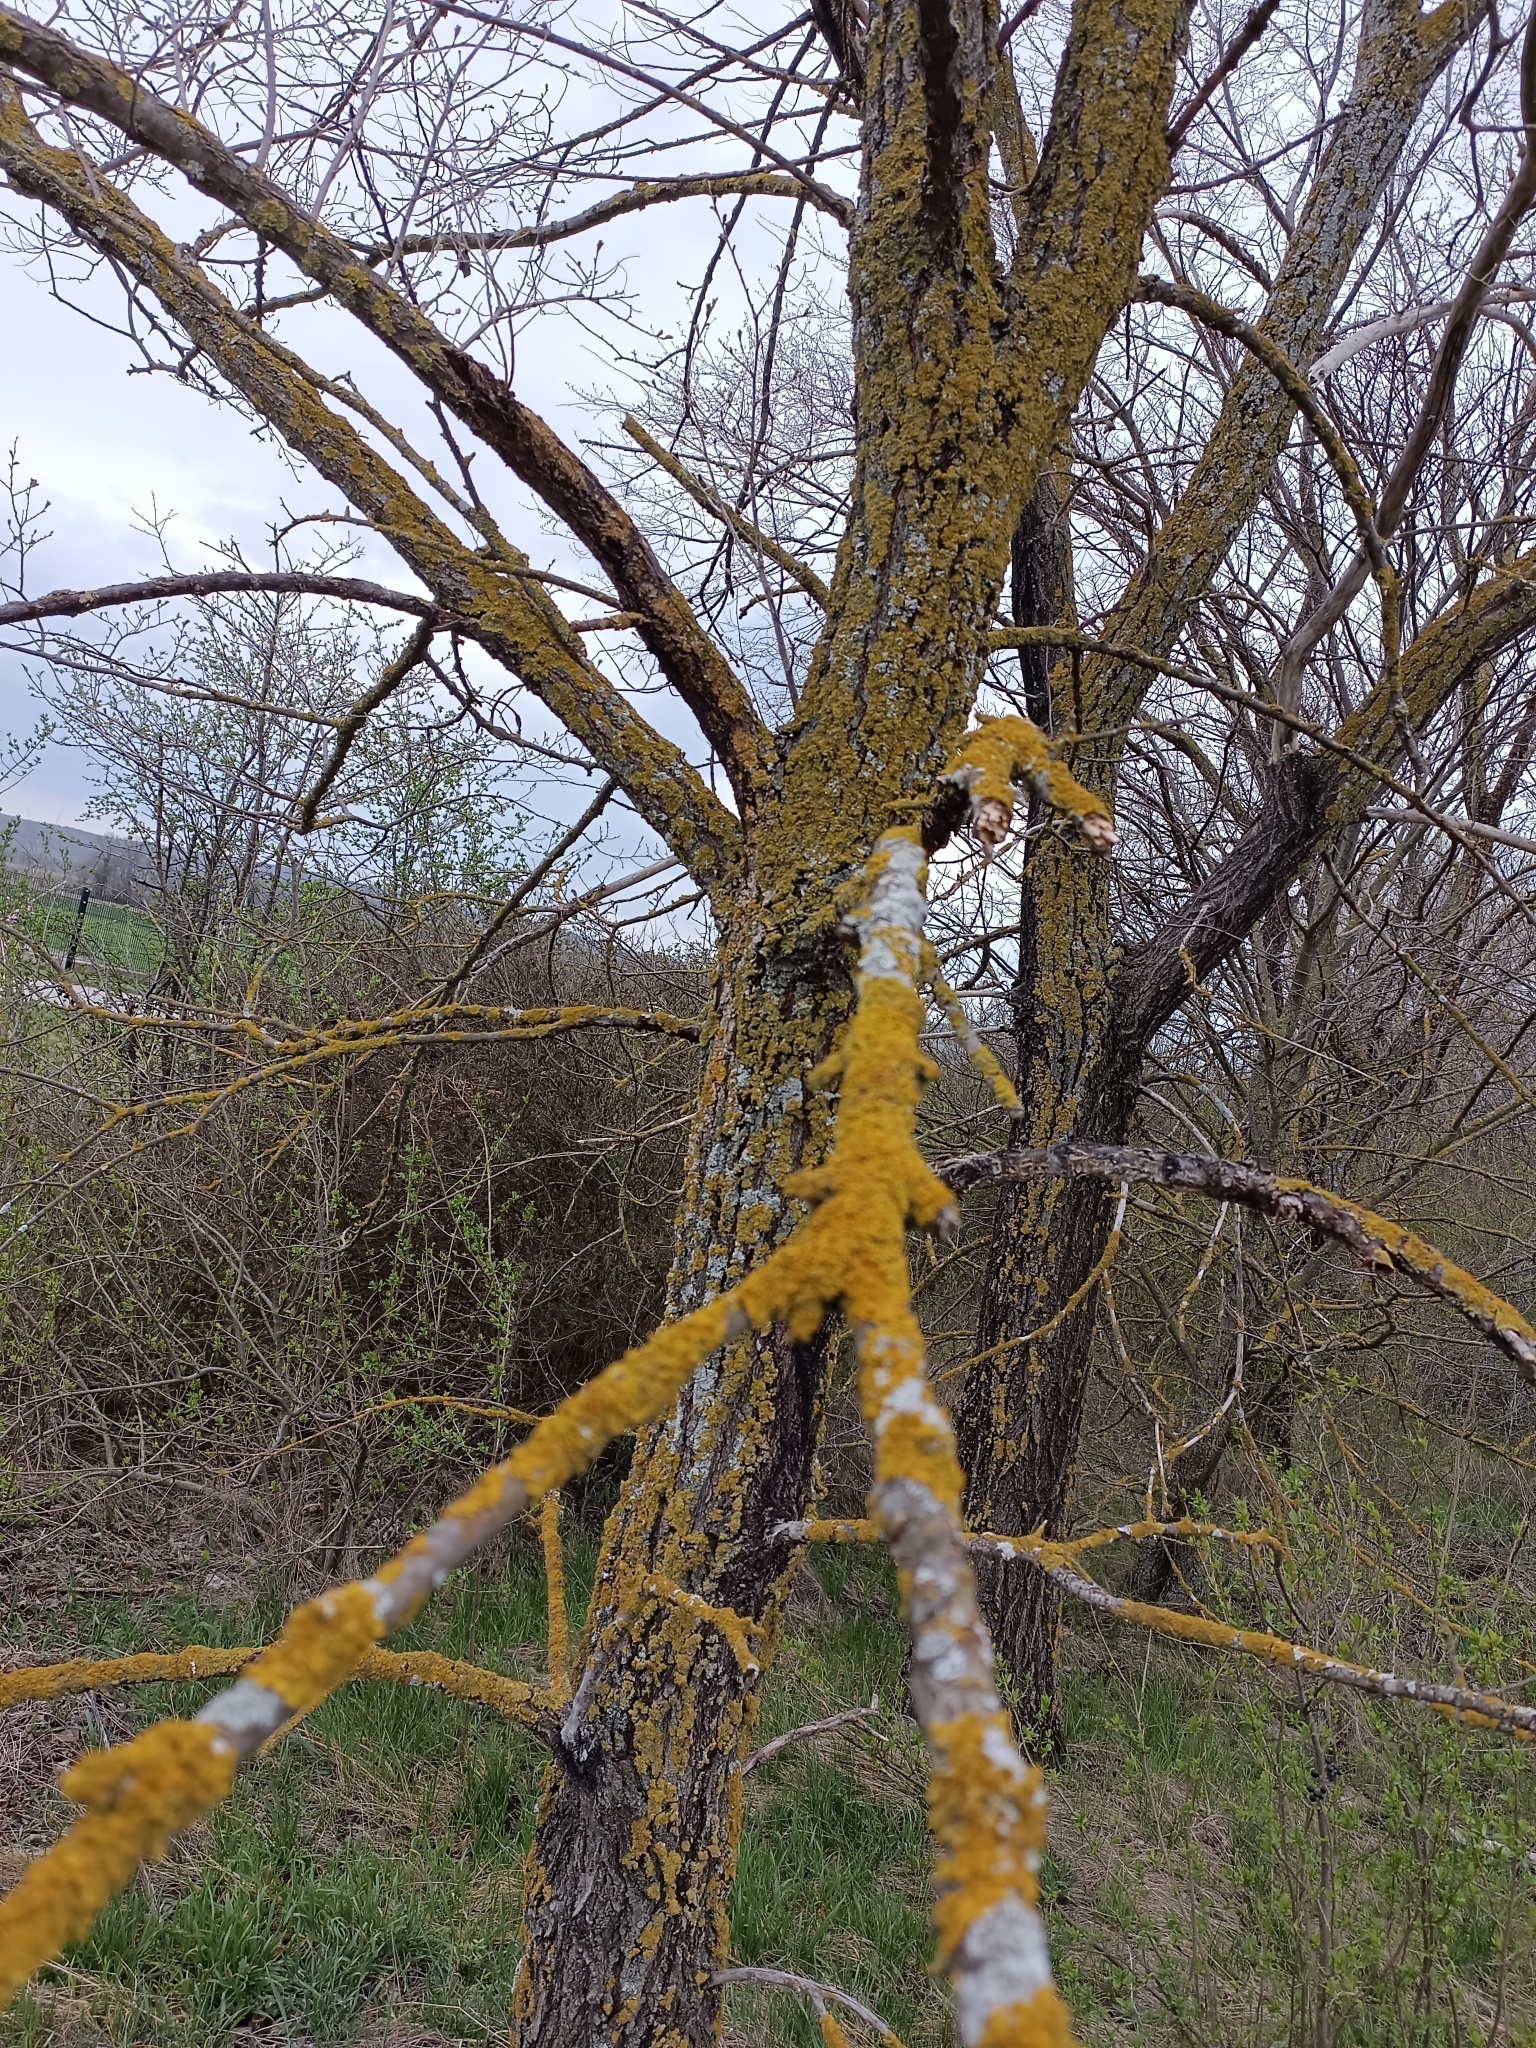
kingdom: Fungi
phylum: Ascomycota
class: Lecanoromycetes
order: Teloschistales
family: Teloschistaceae
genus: Xanthoria
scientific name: Xanthoria parietina
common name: Common orange lichen
